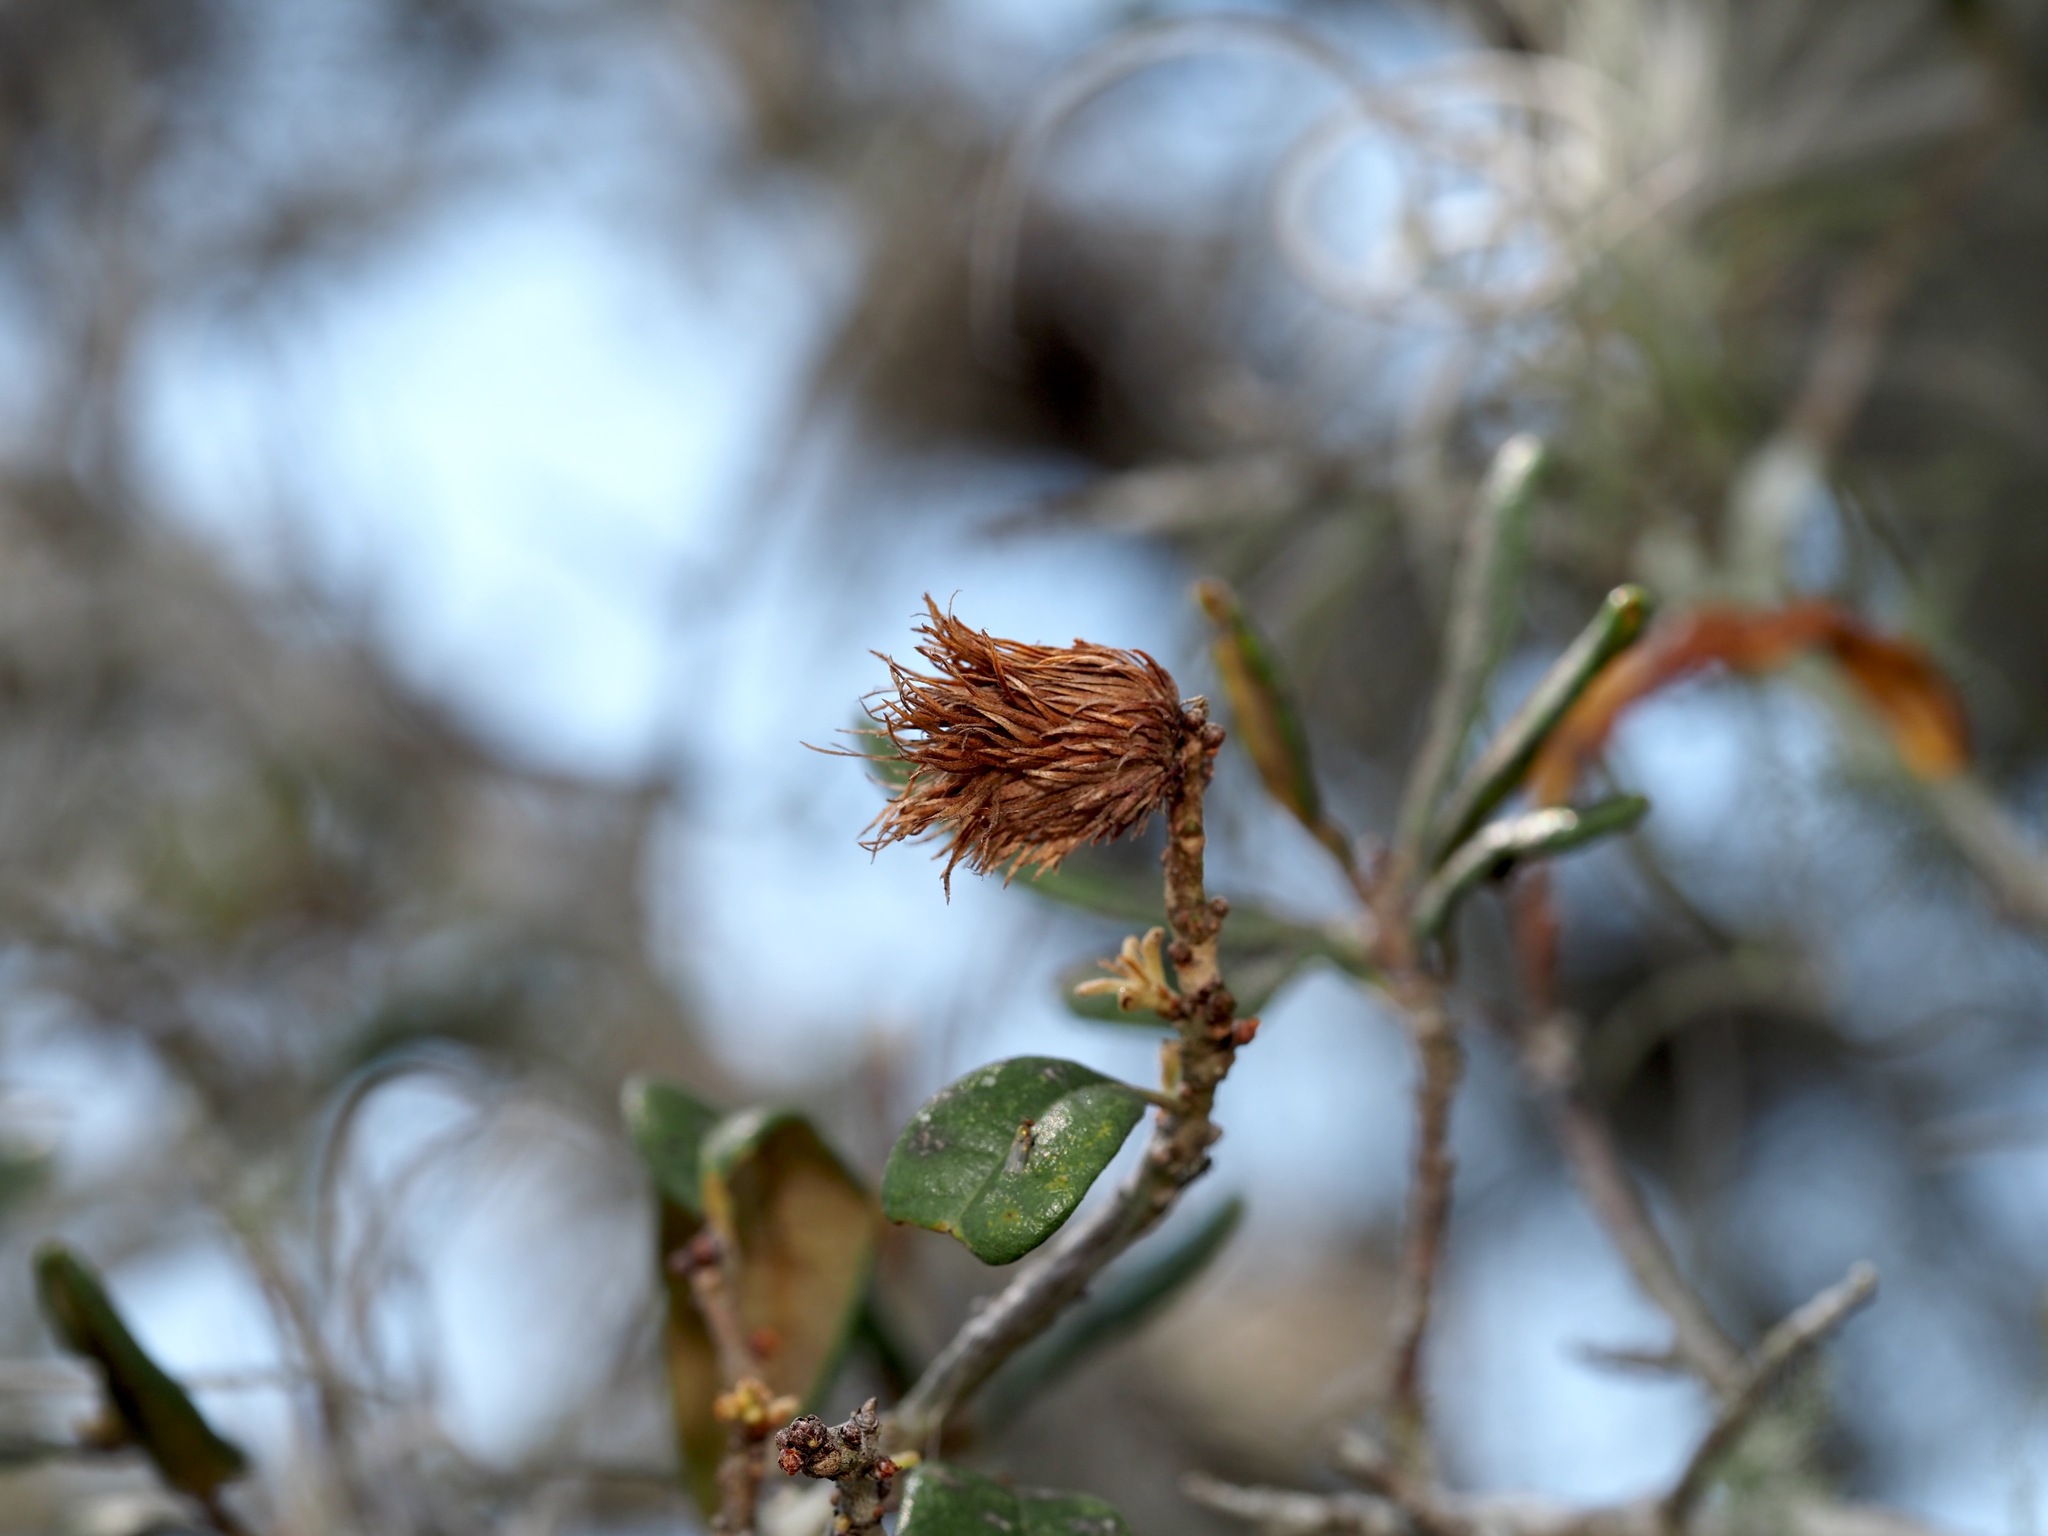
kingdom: Animalia
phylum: Arthropoda
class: Insecta
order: Hymenoptera
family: Cynipidae
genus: Andricus
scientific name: Andricus quercusfoliatus
